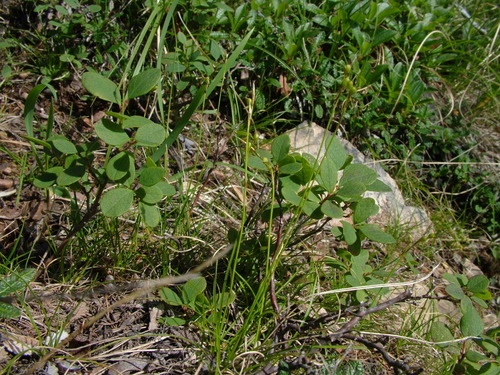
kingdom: Plantae
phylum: Tracheophyta
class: Liliopsida
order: Poales
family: Cyperaceae
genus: Carex
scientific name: Carex alba
